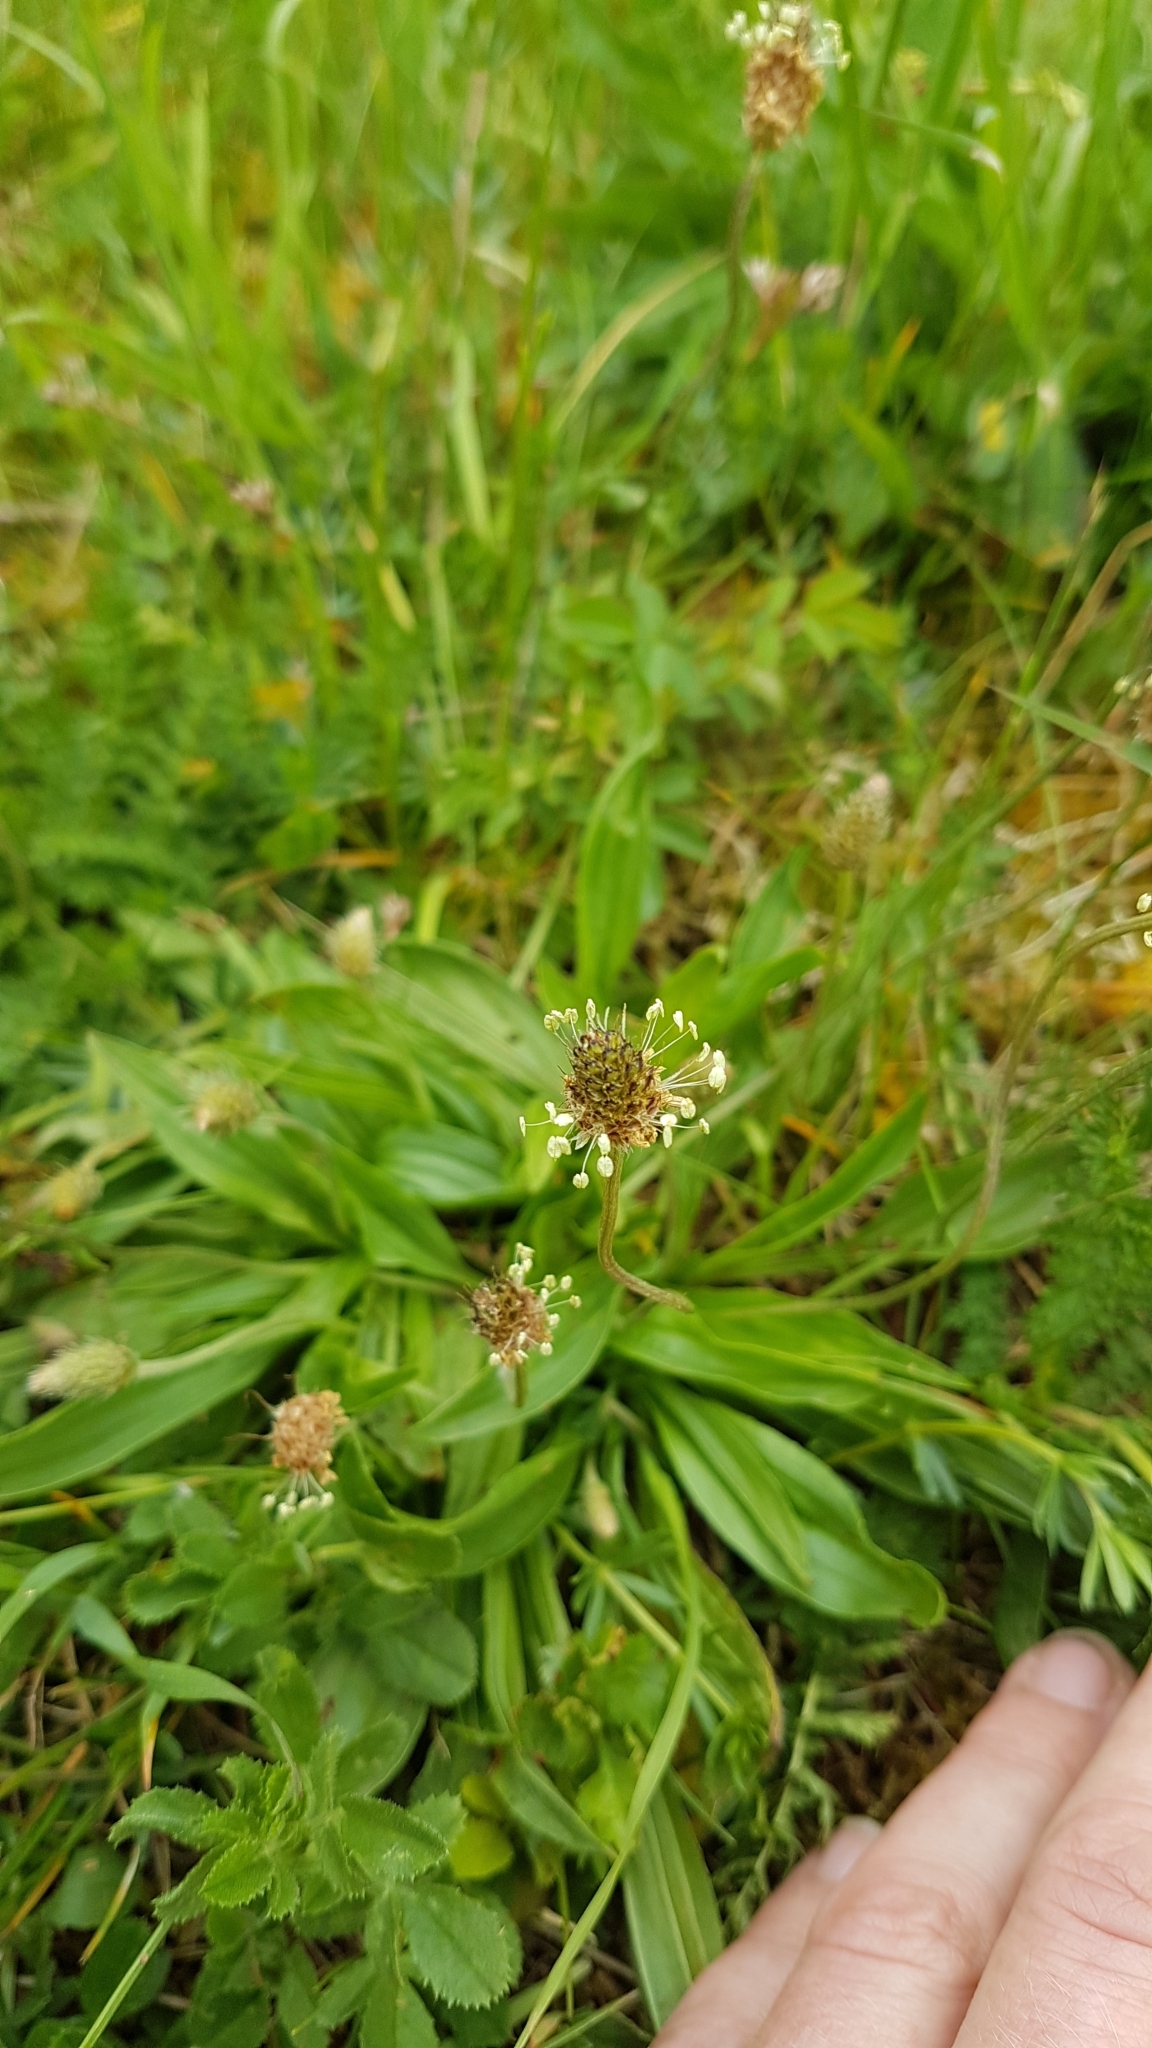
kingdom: Plantae
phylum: Tracheophyta
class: Magnoliopsida
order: Lamiales
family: Plantaginaceae
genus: Plantago
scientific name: Plantago lanceolata
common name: Ribwort plantain
